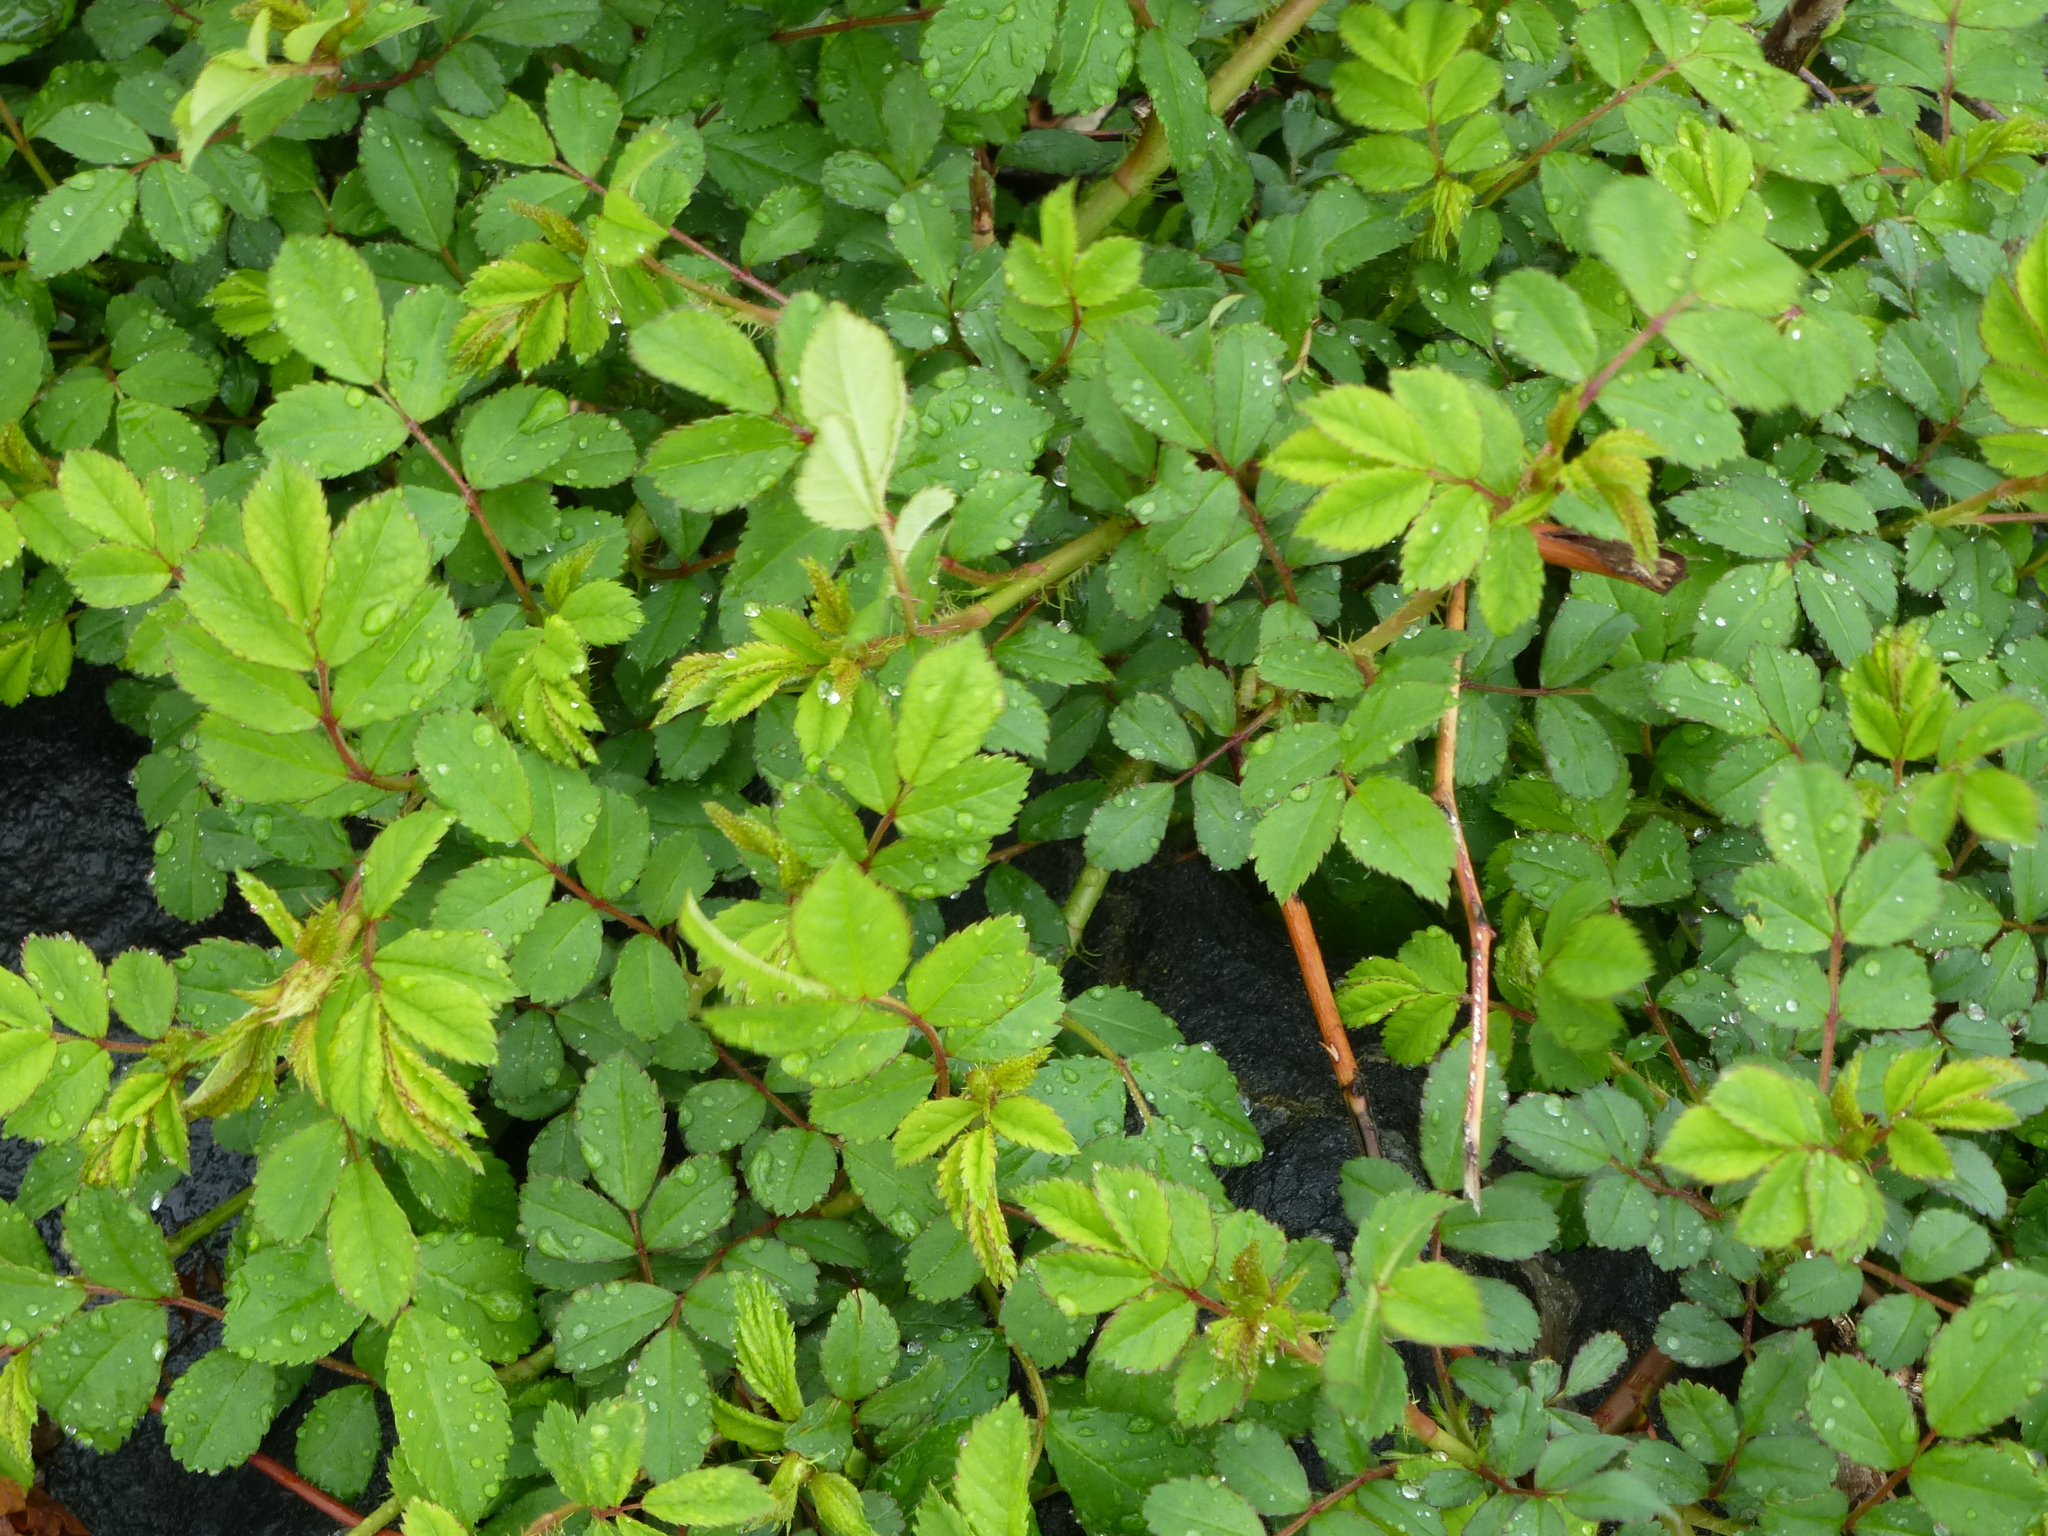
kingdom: Plantae
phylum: Tracheophyta
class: Magnoliopsida
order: Rosales
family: Rosaceae
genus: Rosa
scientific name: Rosa multiflora
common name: Multiflora rose
